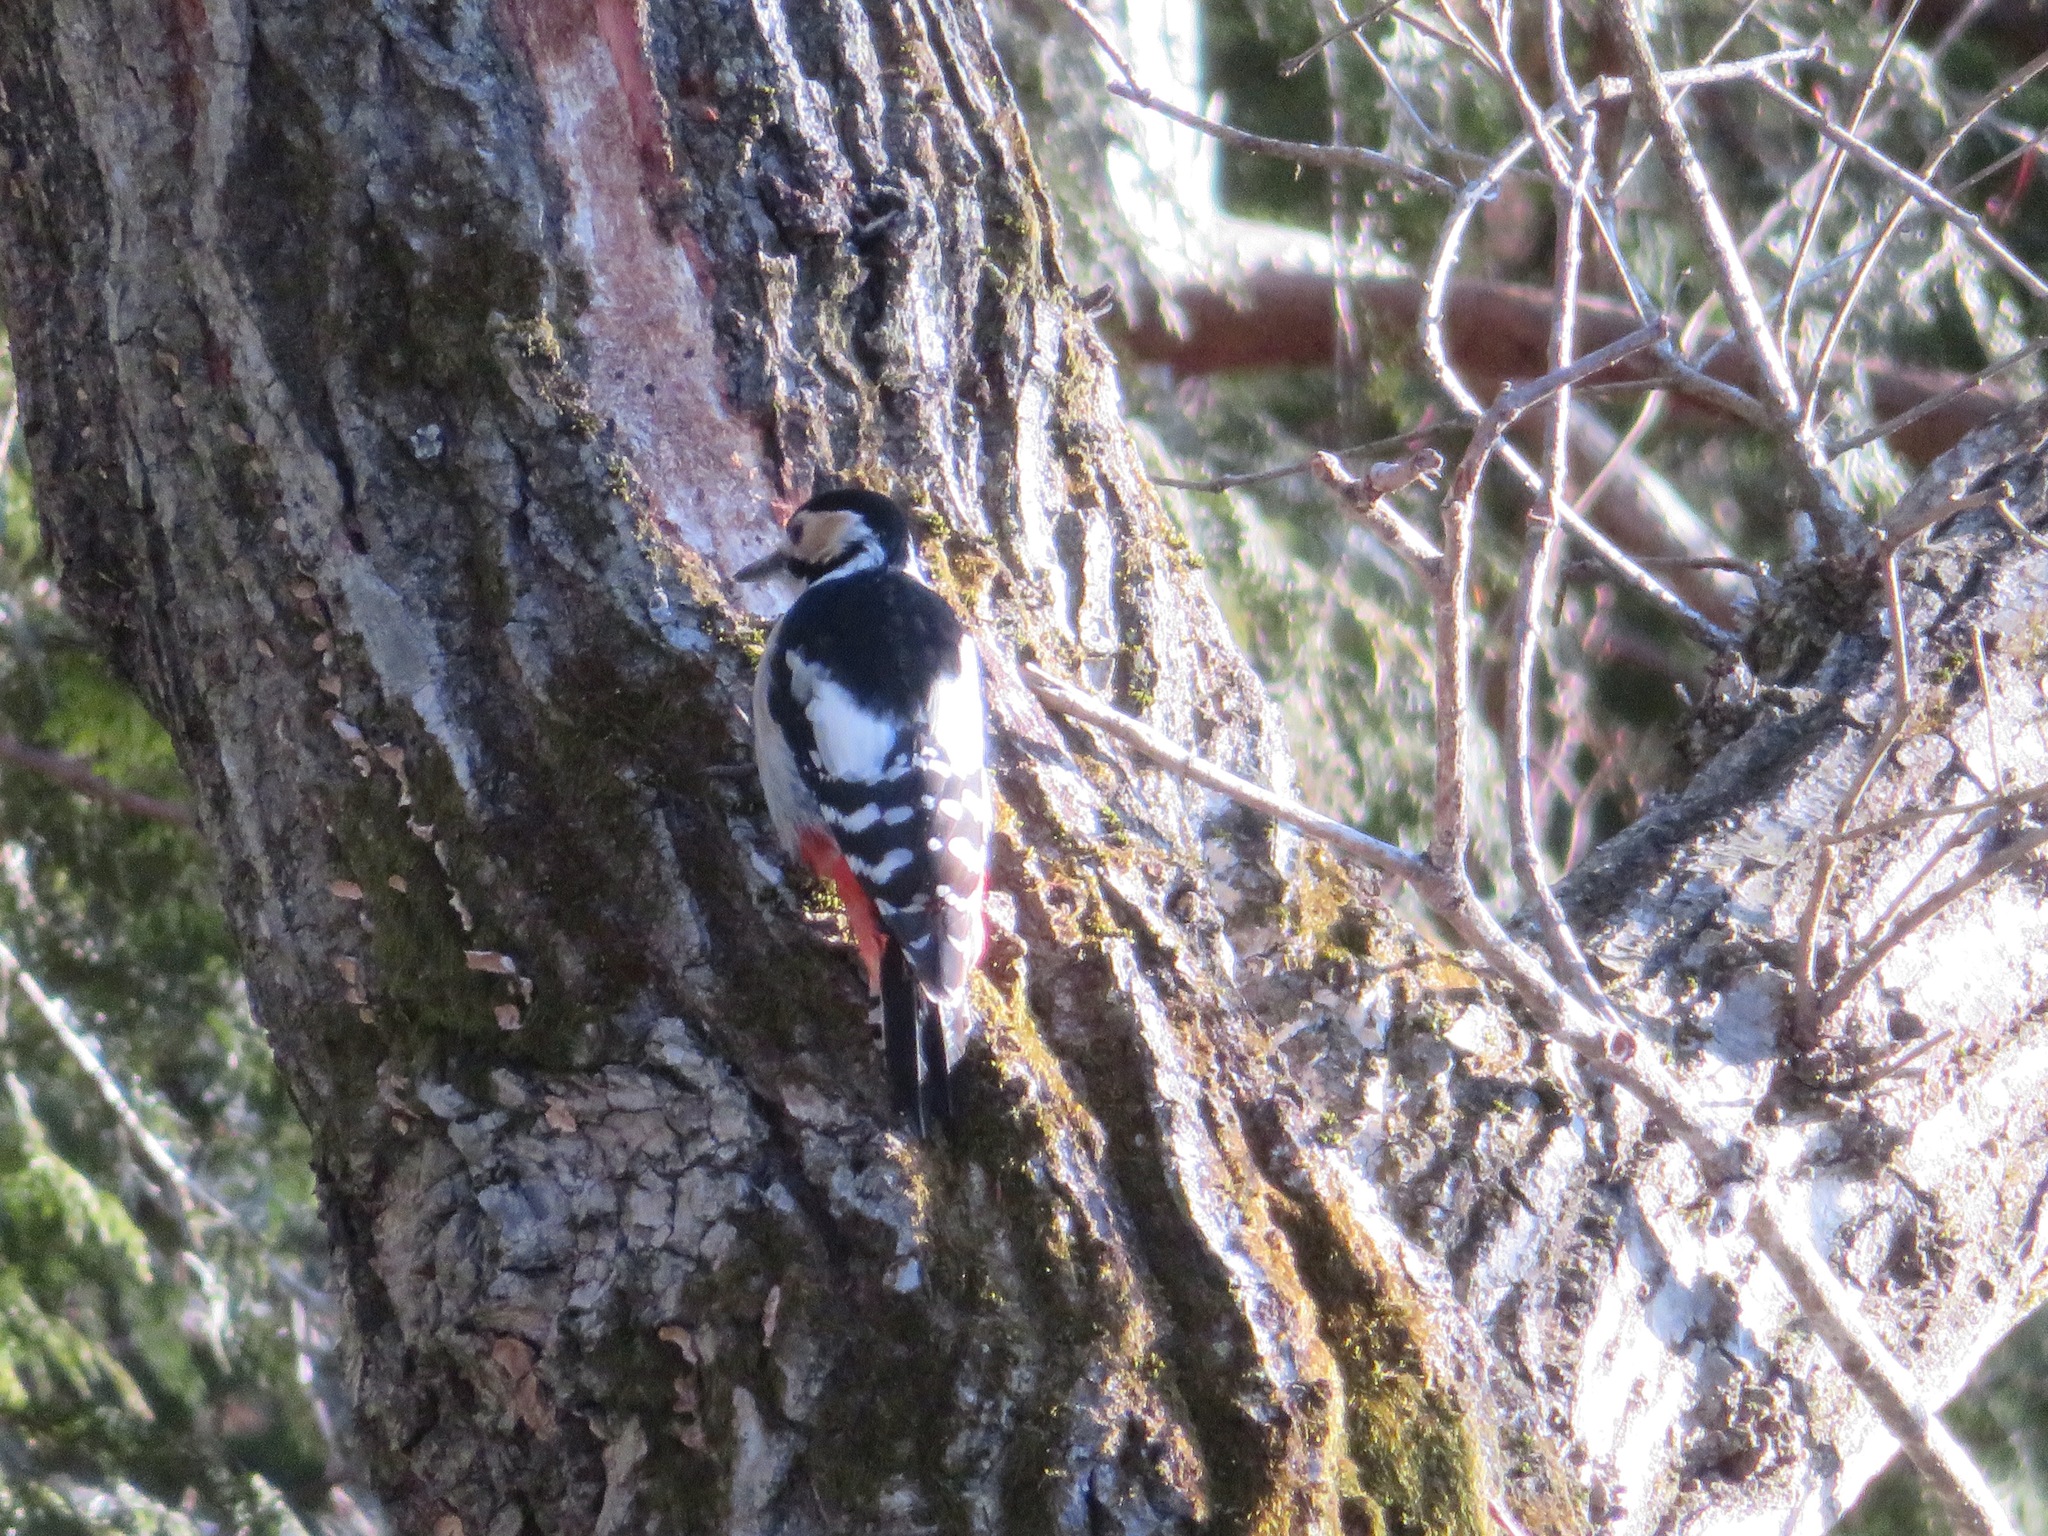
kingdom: Animalia
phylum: Chordata
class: Aves
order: Piciformes
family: Picidae
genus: Dendrocopos
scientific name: Dendrocopos leucotos
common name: White-backed woodpecker
